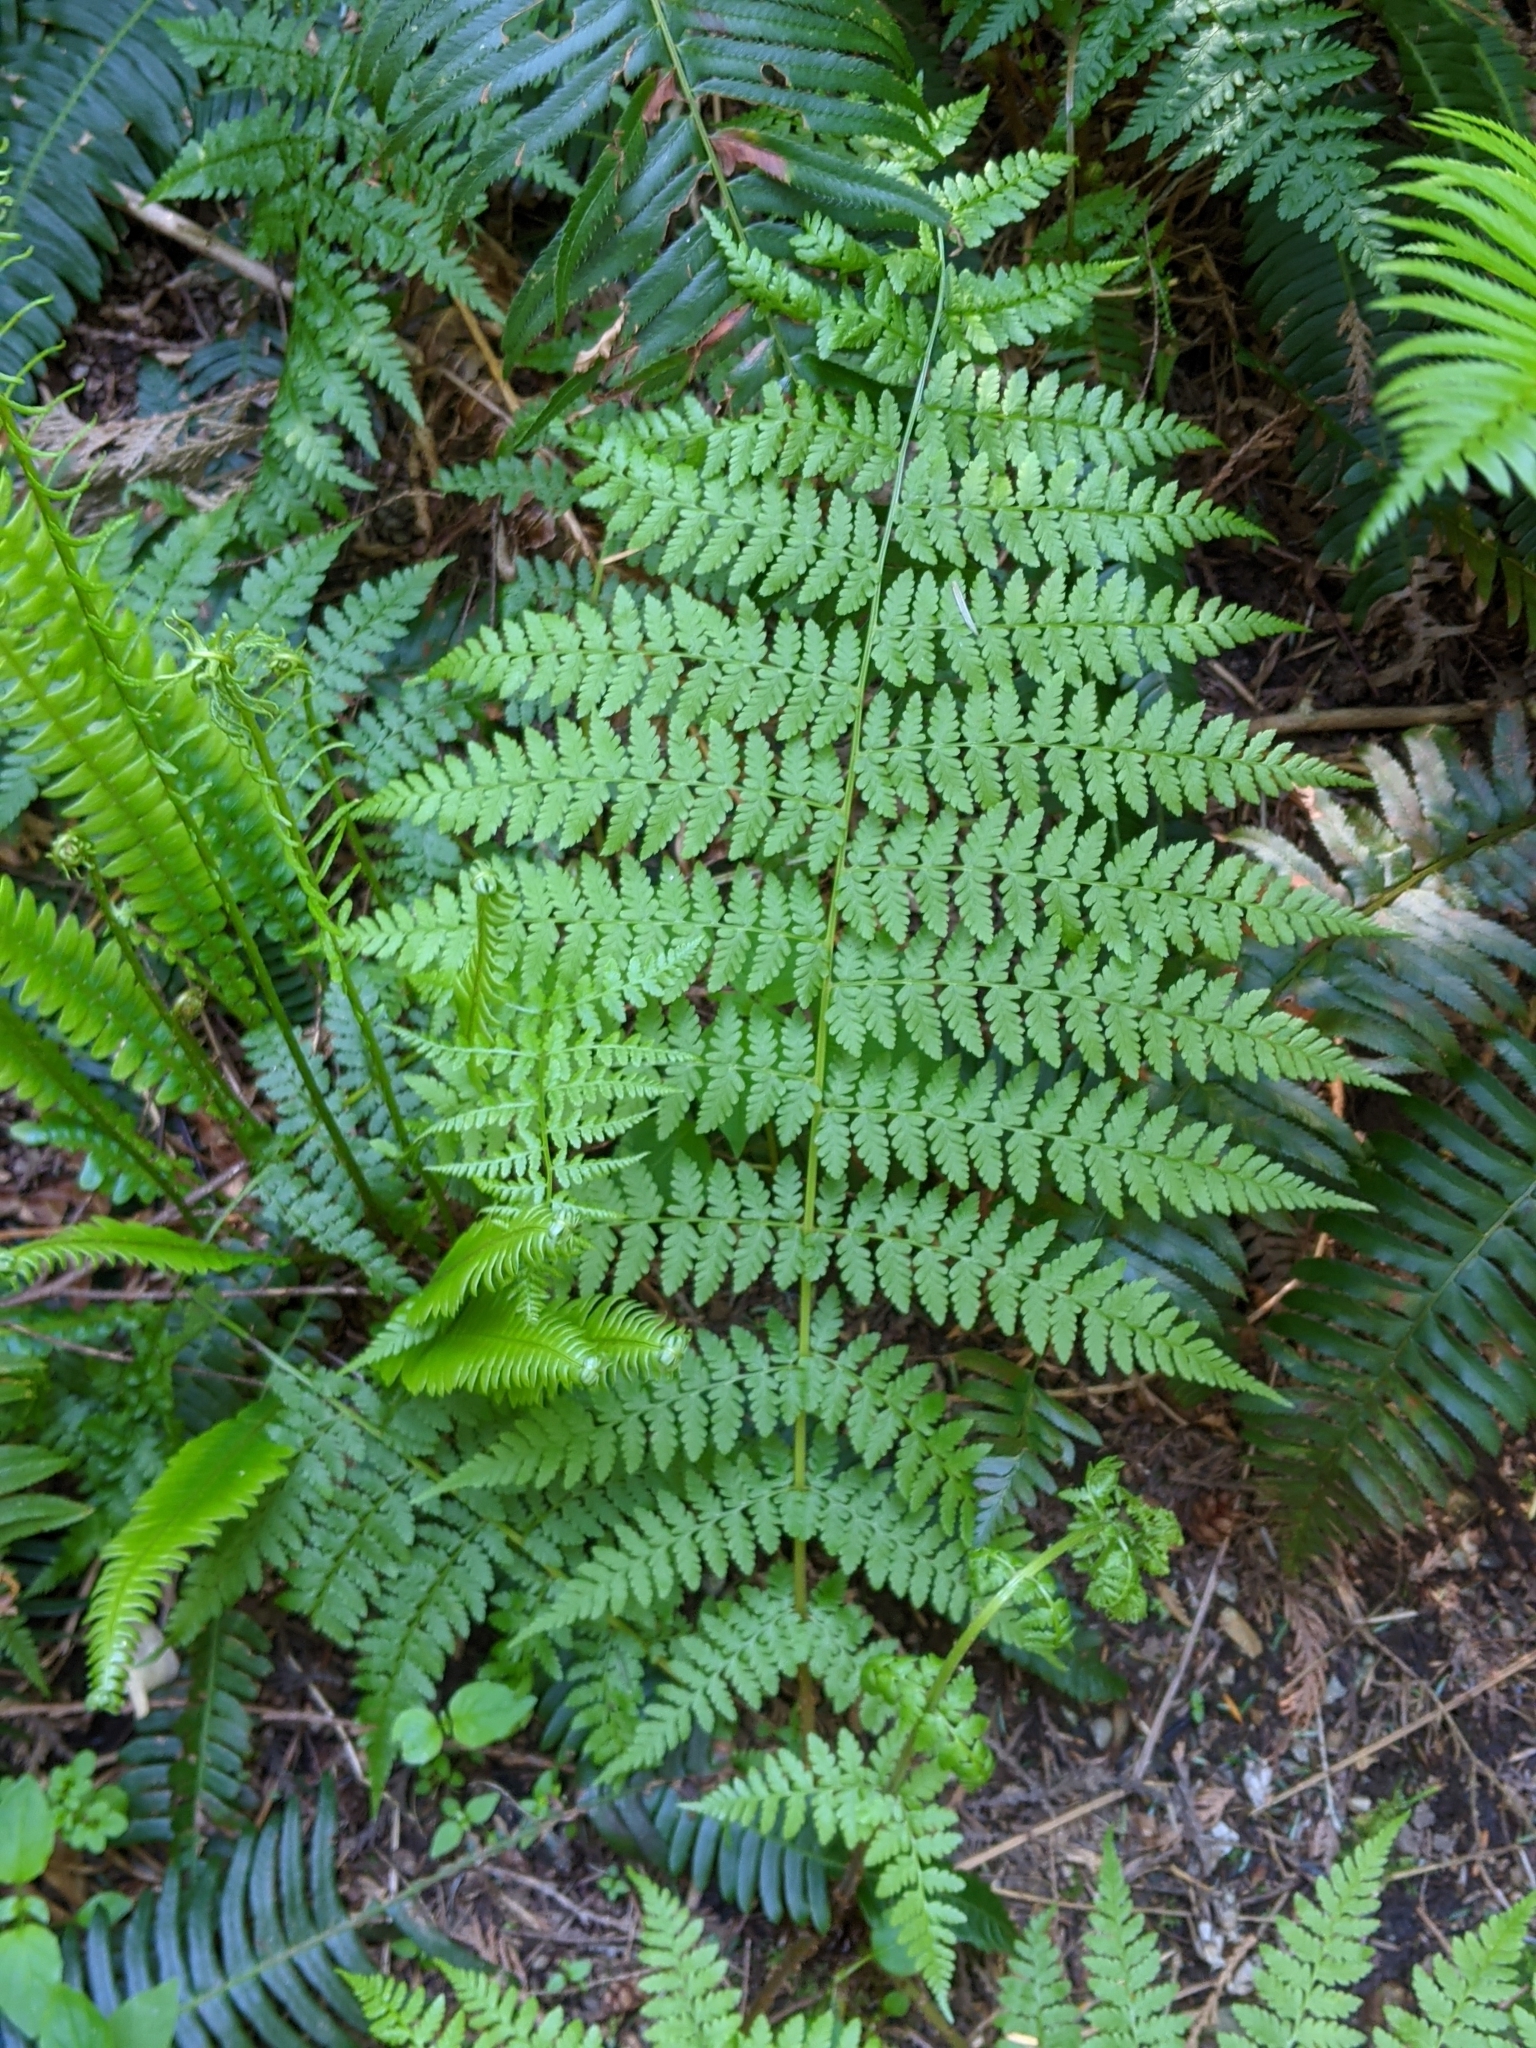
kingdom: Plantae
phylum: Tracheophyta
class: Polypodiopsida
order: Polypodiales
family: Athyriaceae
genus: Athyrium
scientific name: Athyrium filix-femina
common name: Lady fern
